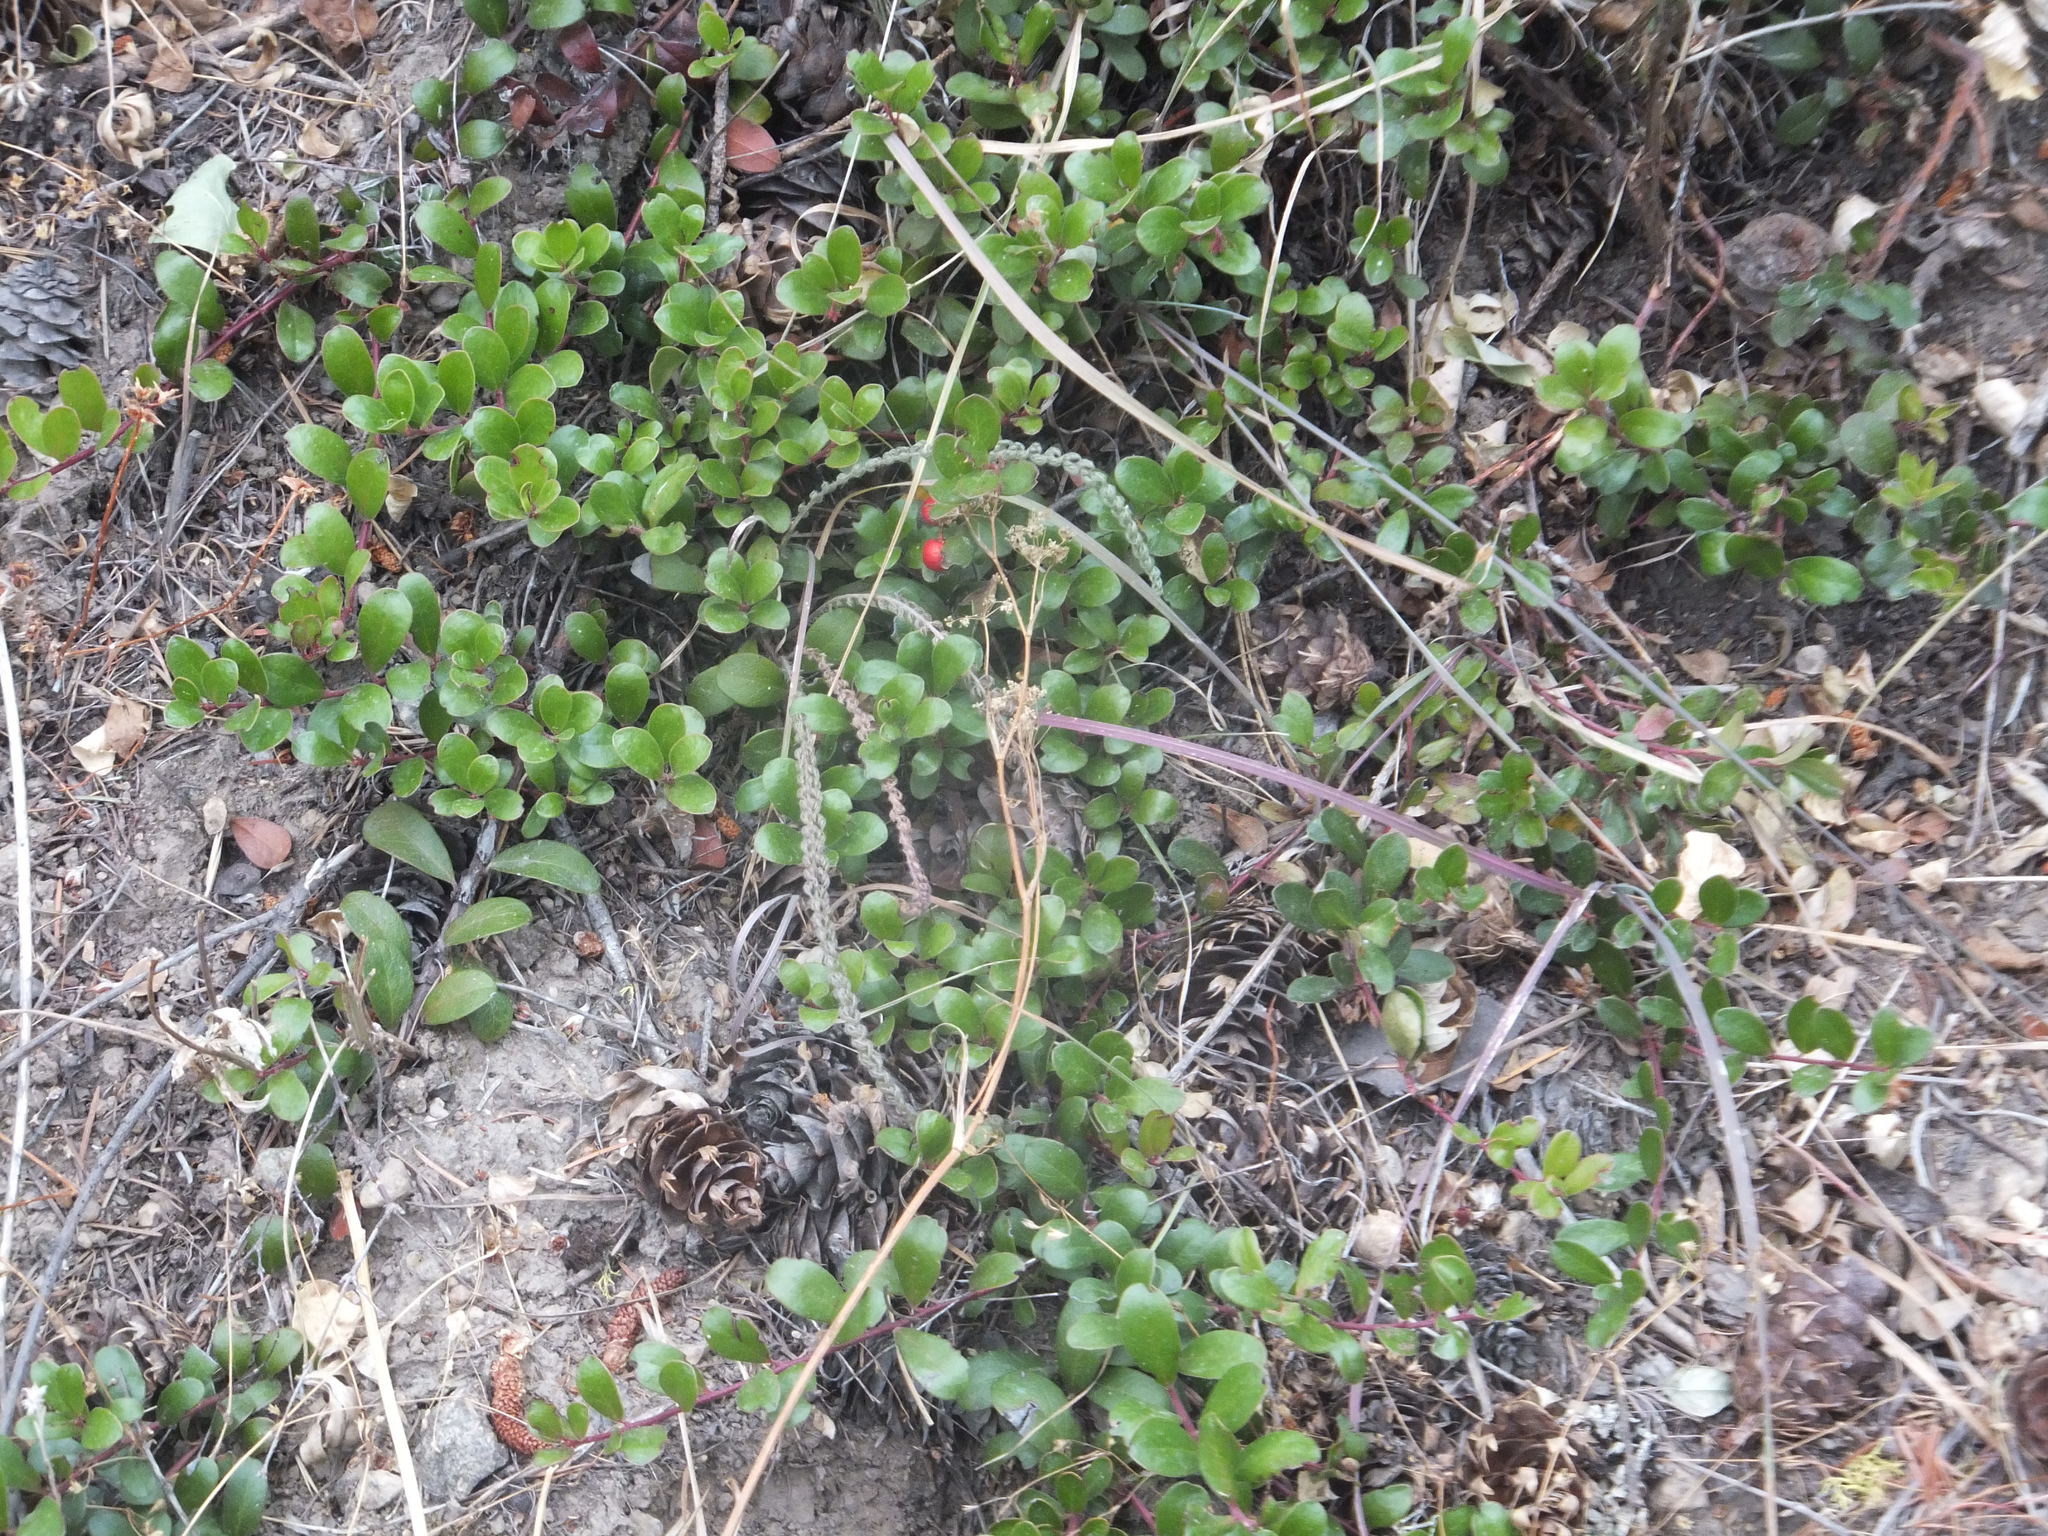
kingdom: Plantae
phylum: Tracheophyta
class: Magnoliopsida
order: Ericales
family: Ericaceae
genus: Arctostaphylos
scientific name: Arctostaphylos uva-ursi
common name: Bearberry
